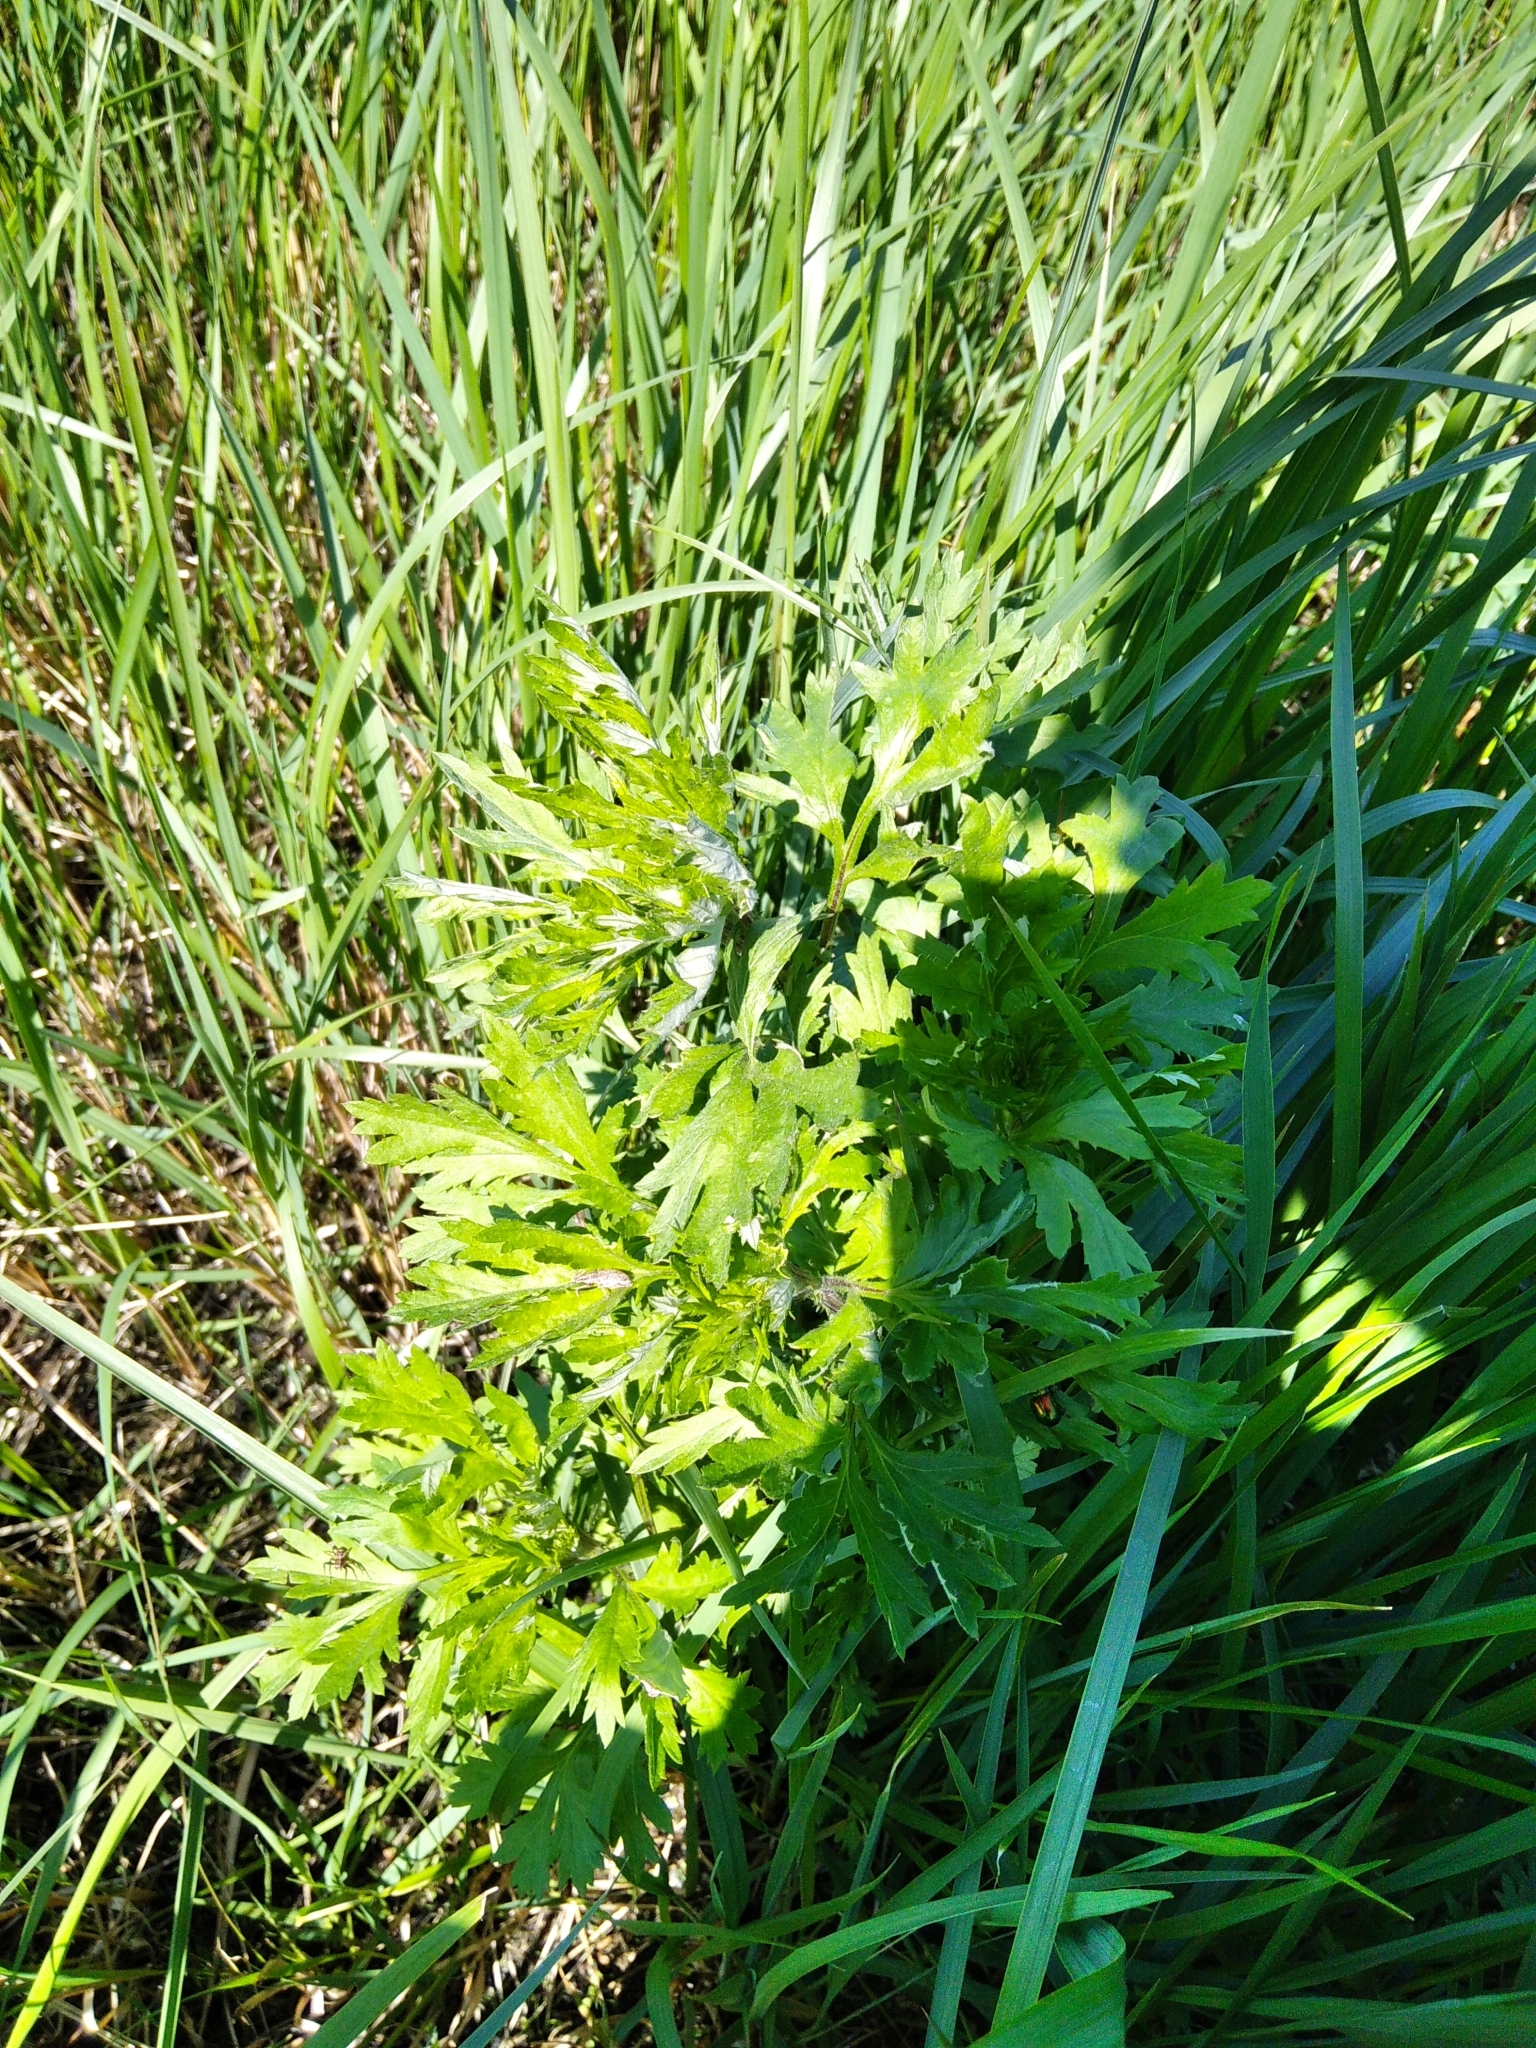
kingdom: Plantae
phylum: Tracheophyta
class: Magnoliopsida
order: Asterales
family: Asteraceae
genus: Artemisia
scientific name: Artemisia vulgaris
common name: Mugwort
